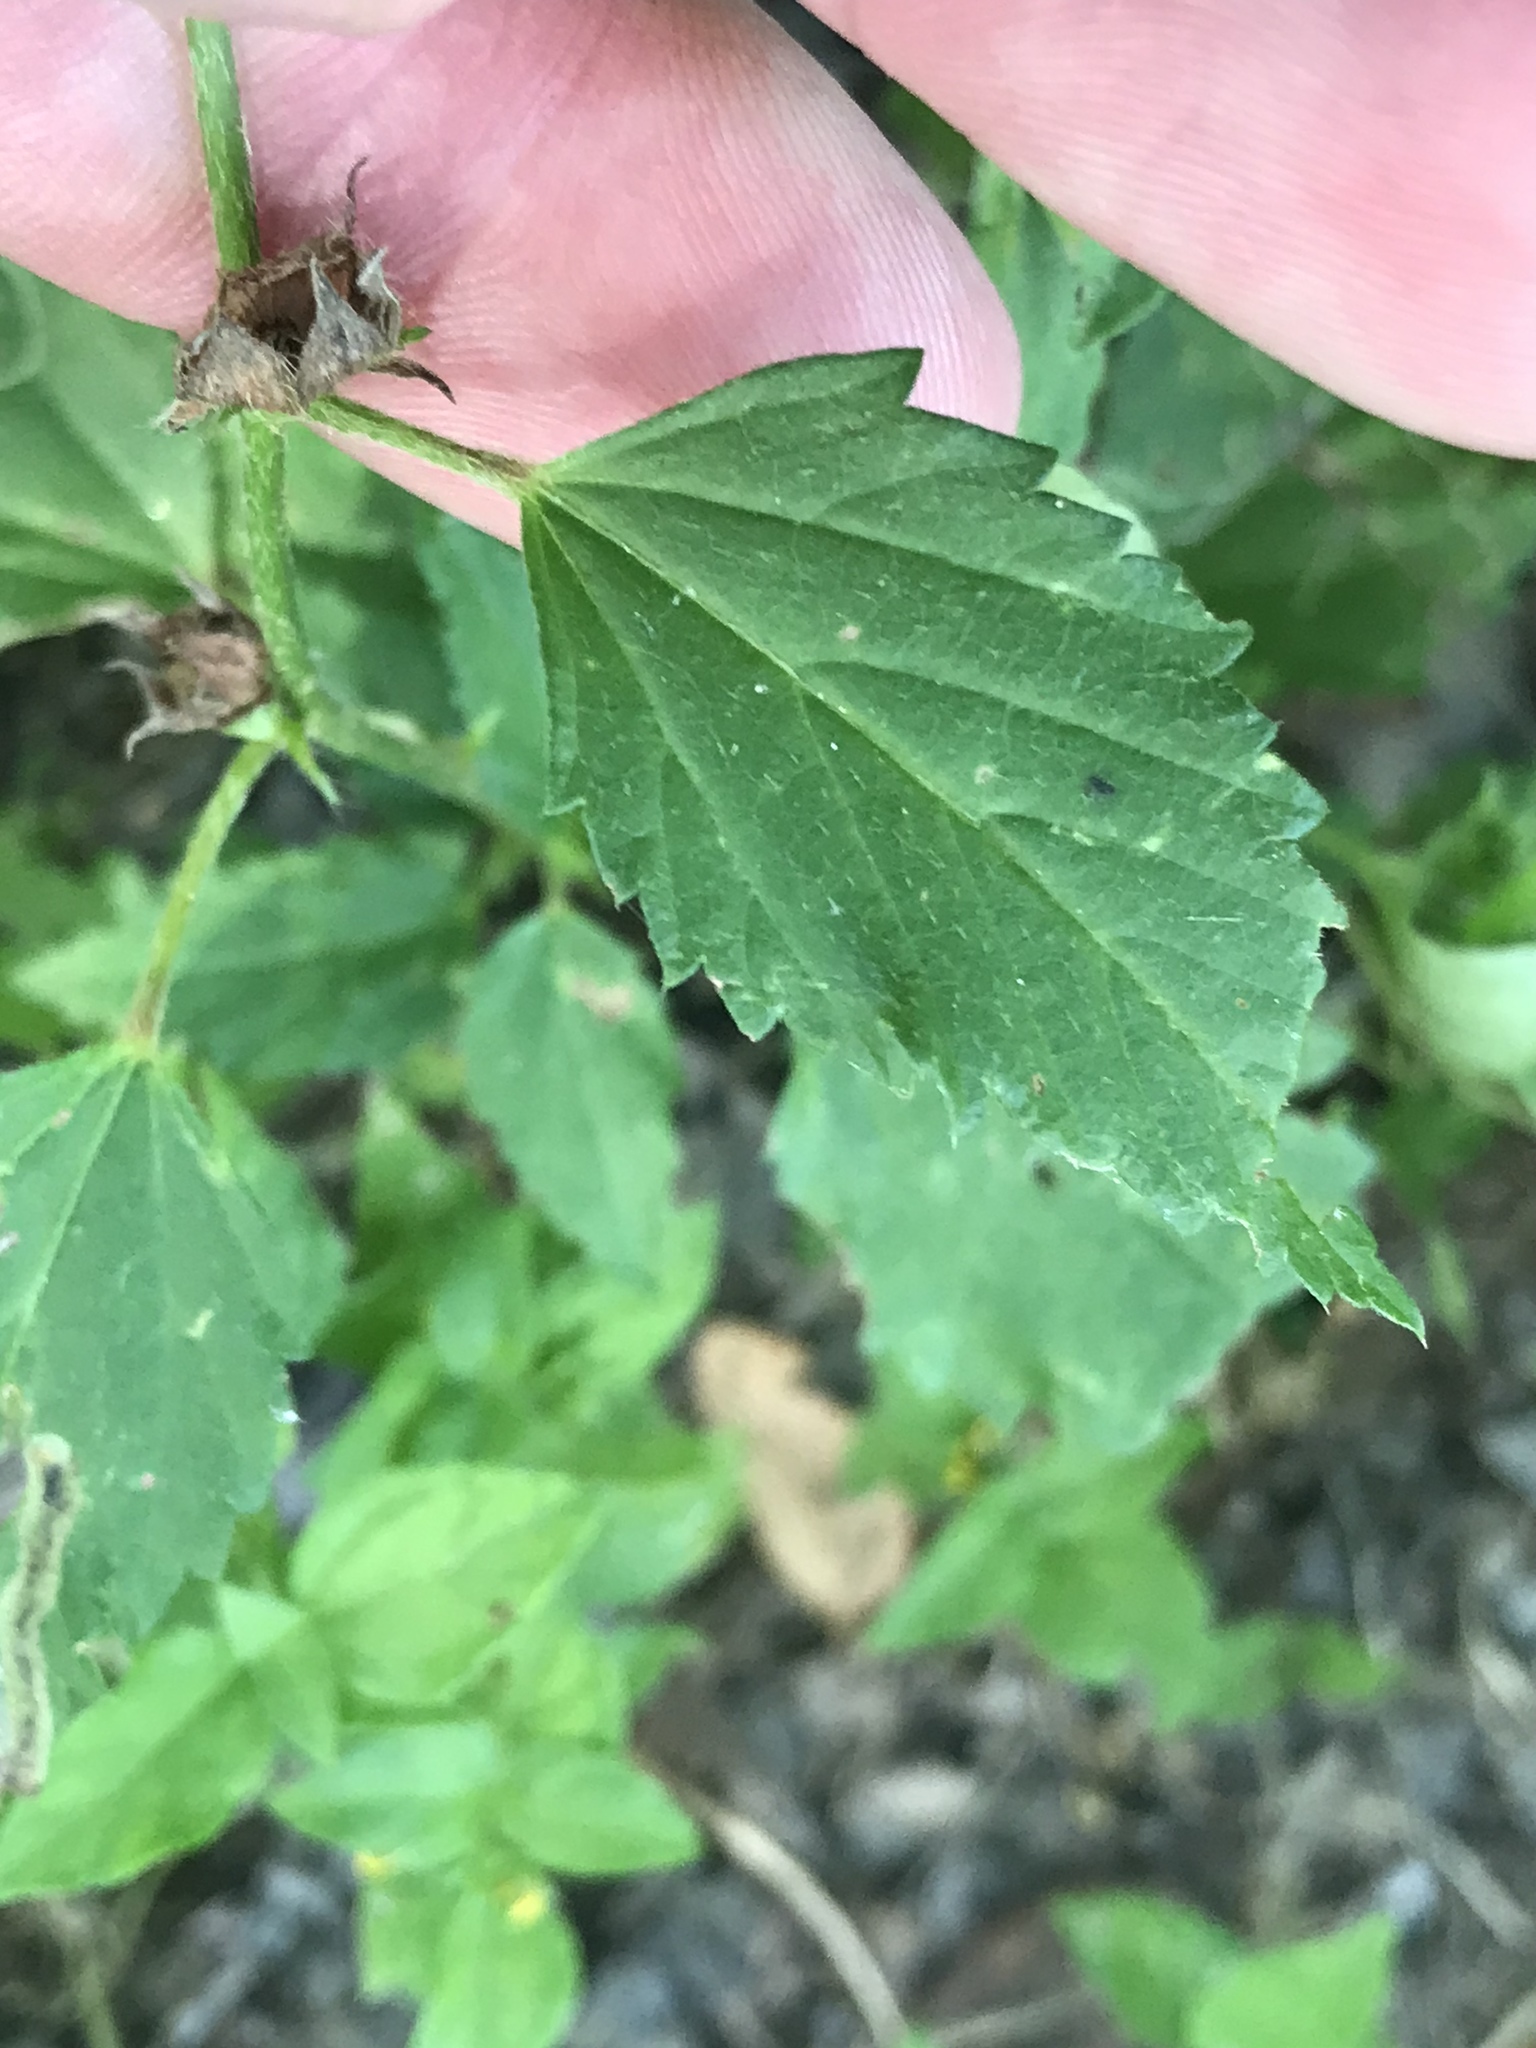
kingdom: Plantae
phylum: Tracheophyta
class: Magnoliopsida
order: Malvales
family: Malvaceae
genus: Malvastrum
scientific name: Malvastrum coromandelianum
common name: Threelobe false mallow
